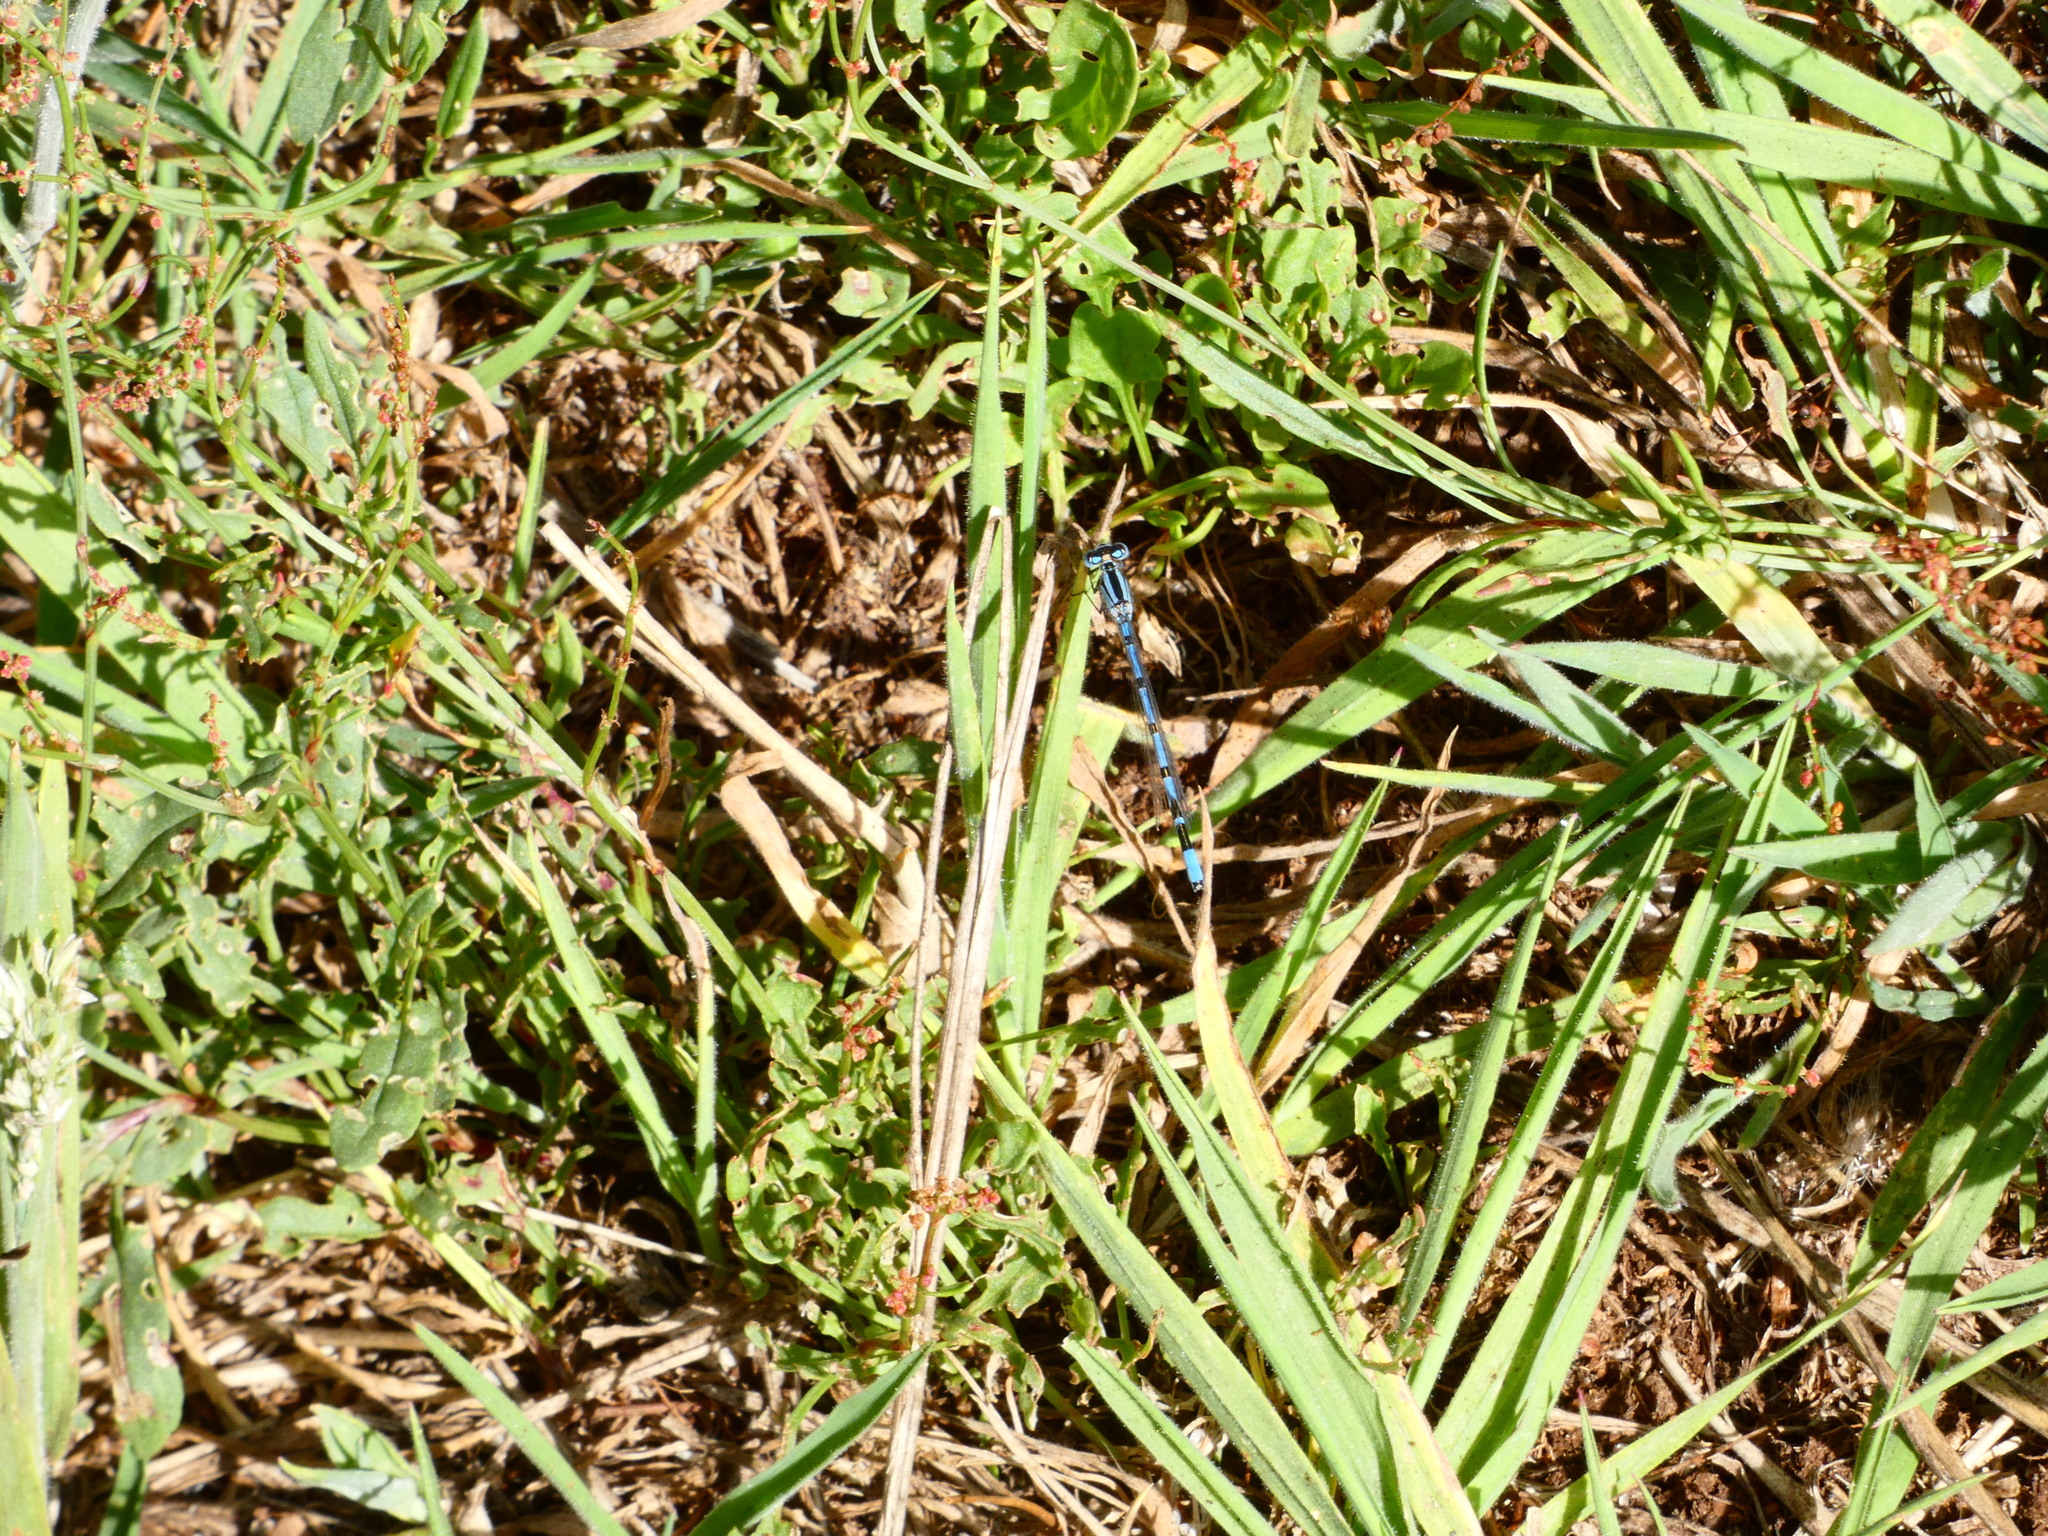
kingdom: Animalia
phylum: Arthropoda
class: Insecta
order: Odonata
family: Coenagrionidae
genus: Enallagma
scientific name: Enallagma cyathigerum
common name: Common blue damselfly
